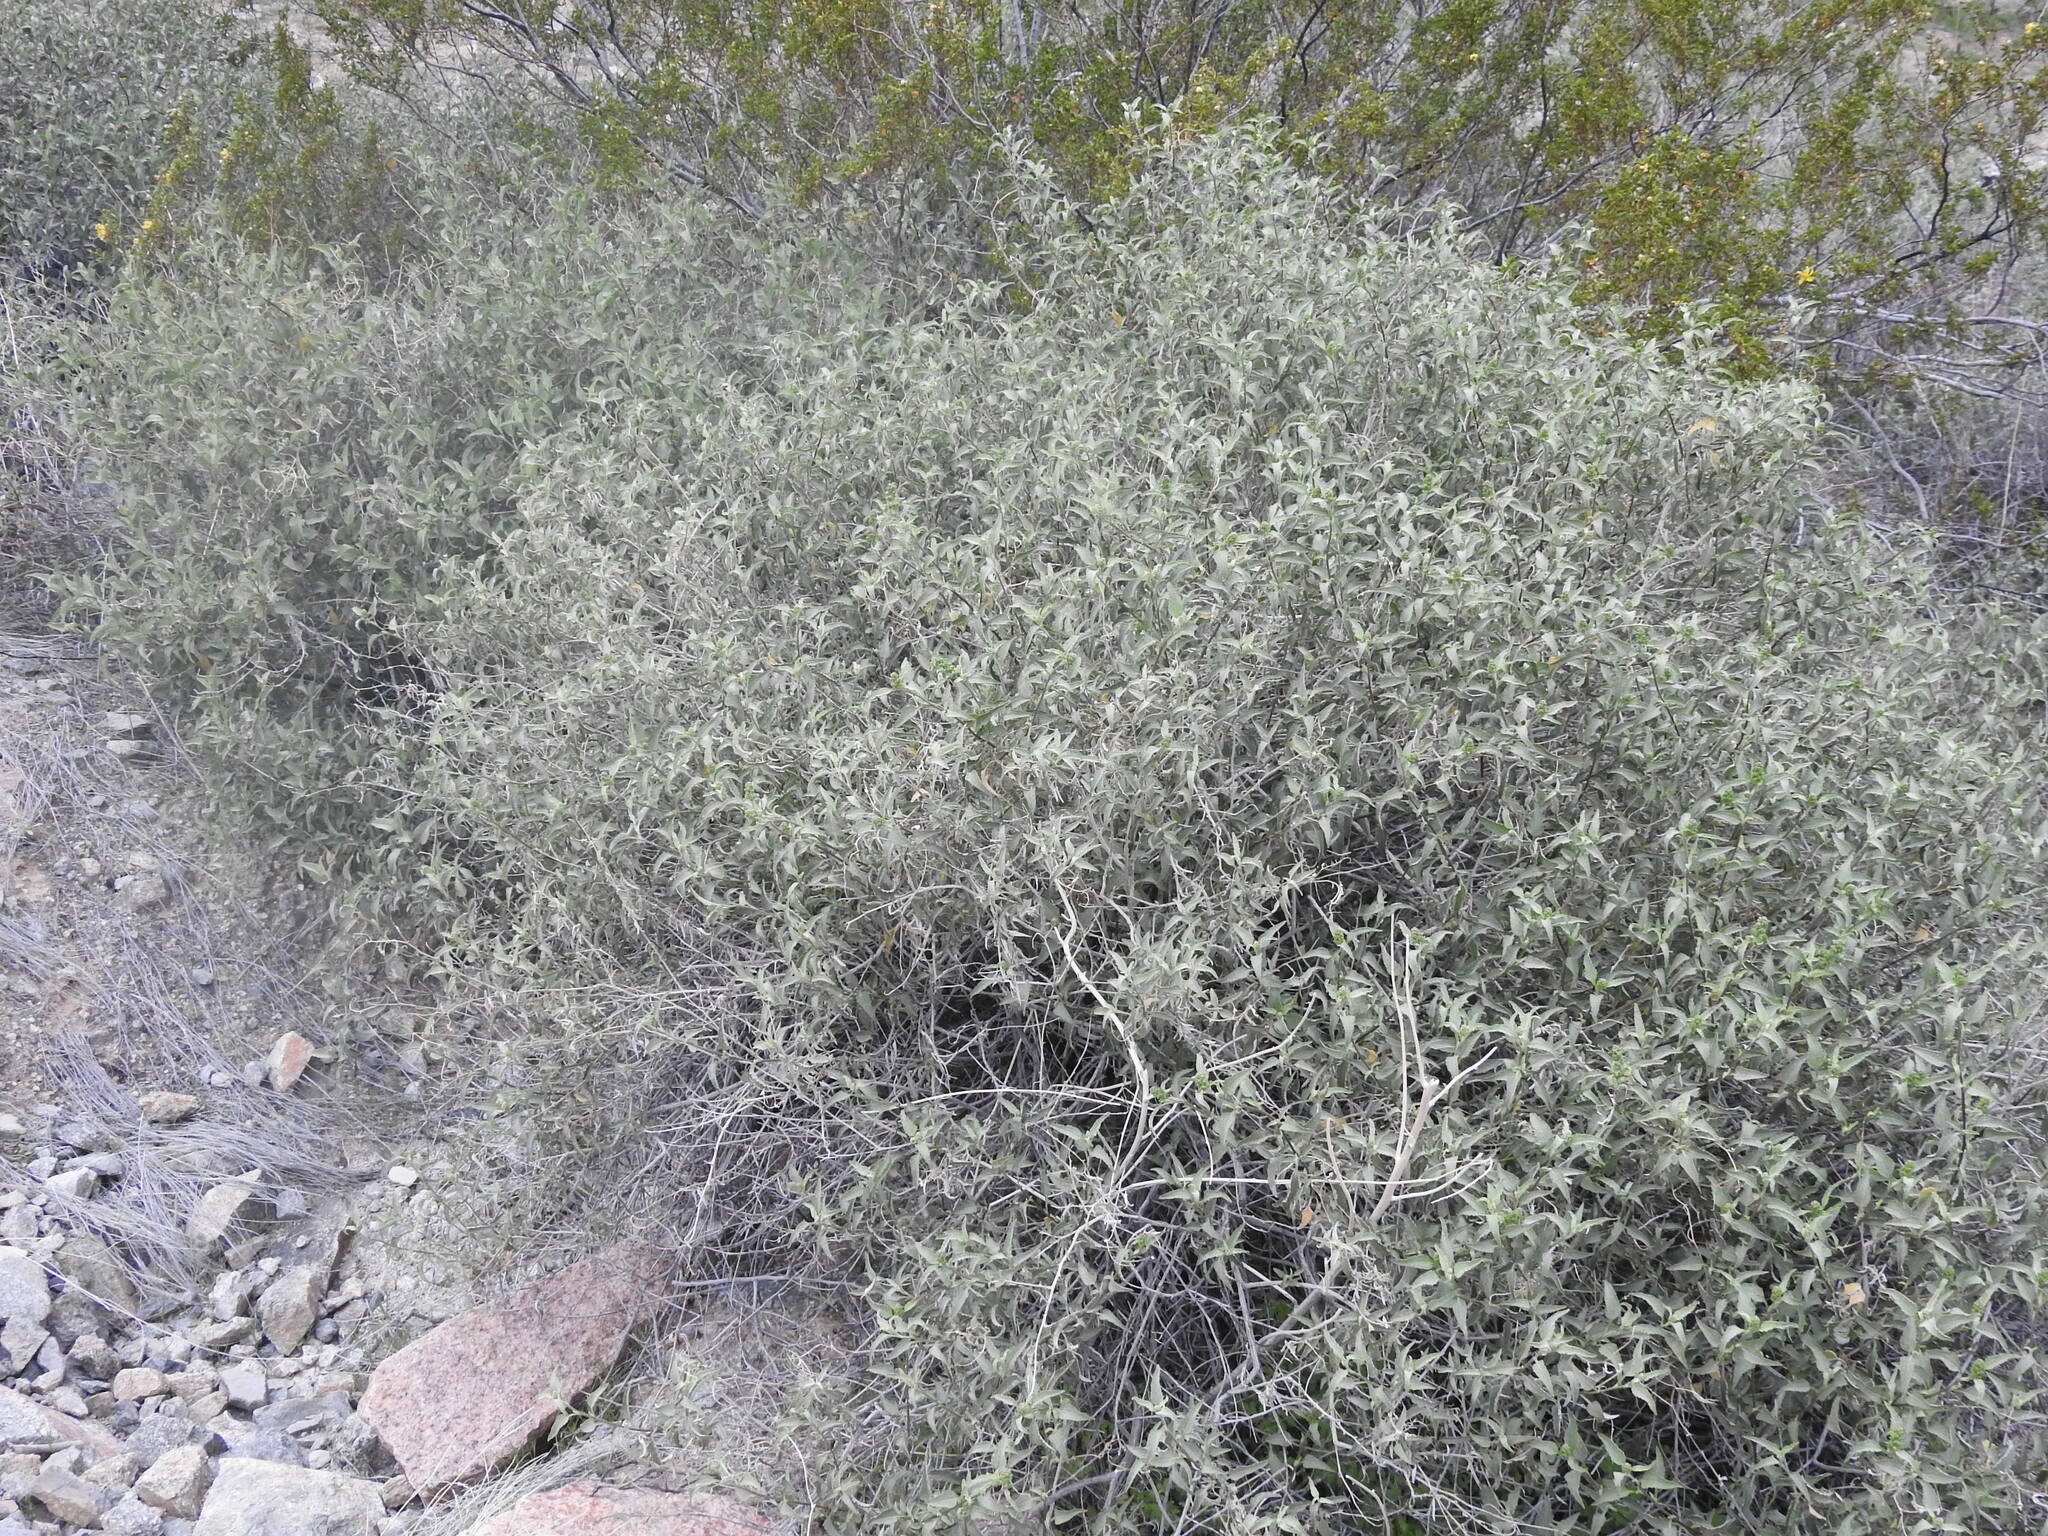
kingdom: Plantae
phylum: Tracheophyta
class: Magnoliopsida
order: Asterales
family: Asteraceae
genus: Ambrosia
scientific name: Ambrosia deltoidea
